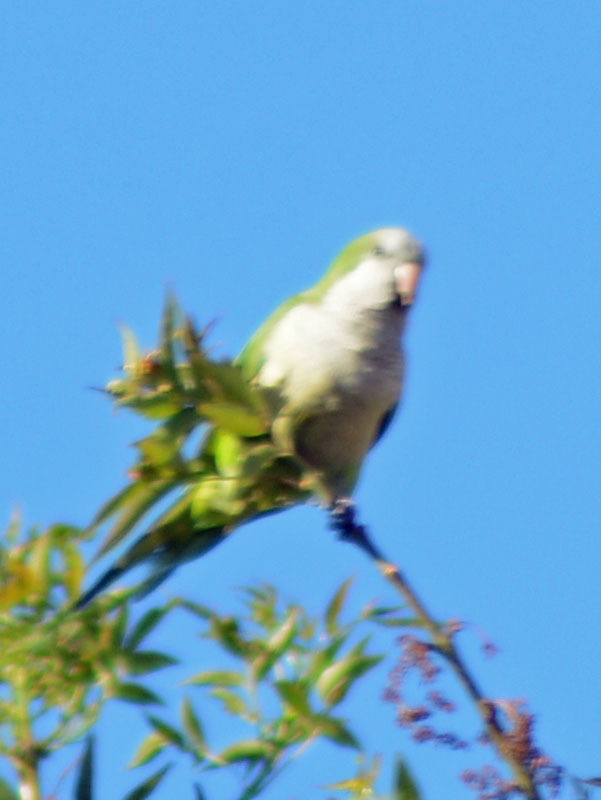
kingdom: Animalia
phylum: Chordata
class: Aves
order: Psittaciformes
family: Psittacidae
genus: Myiopsitta
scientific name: Myiopsitta monachus
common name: Monk parakeet
